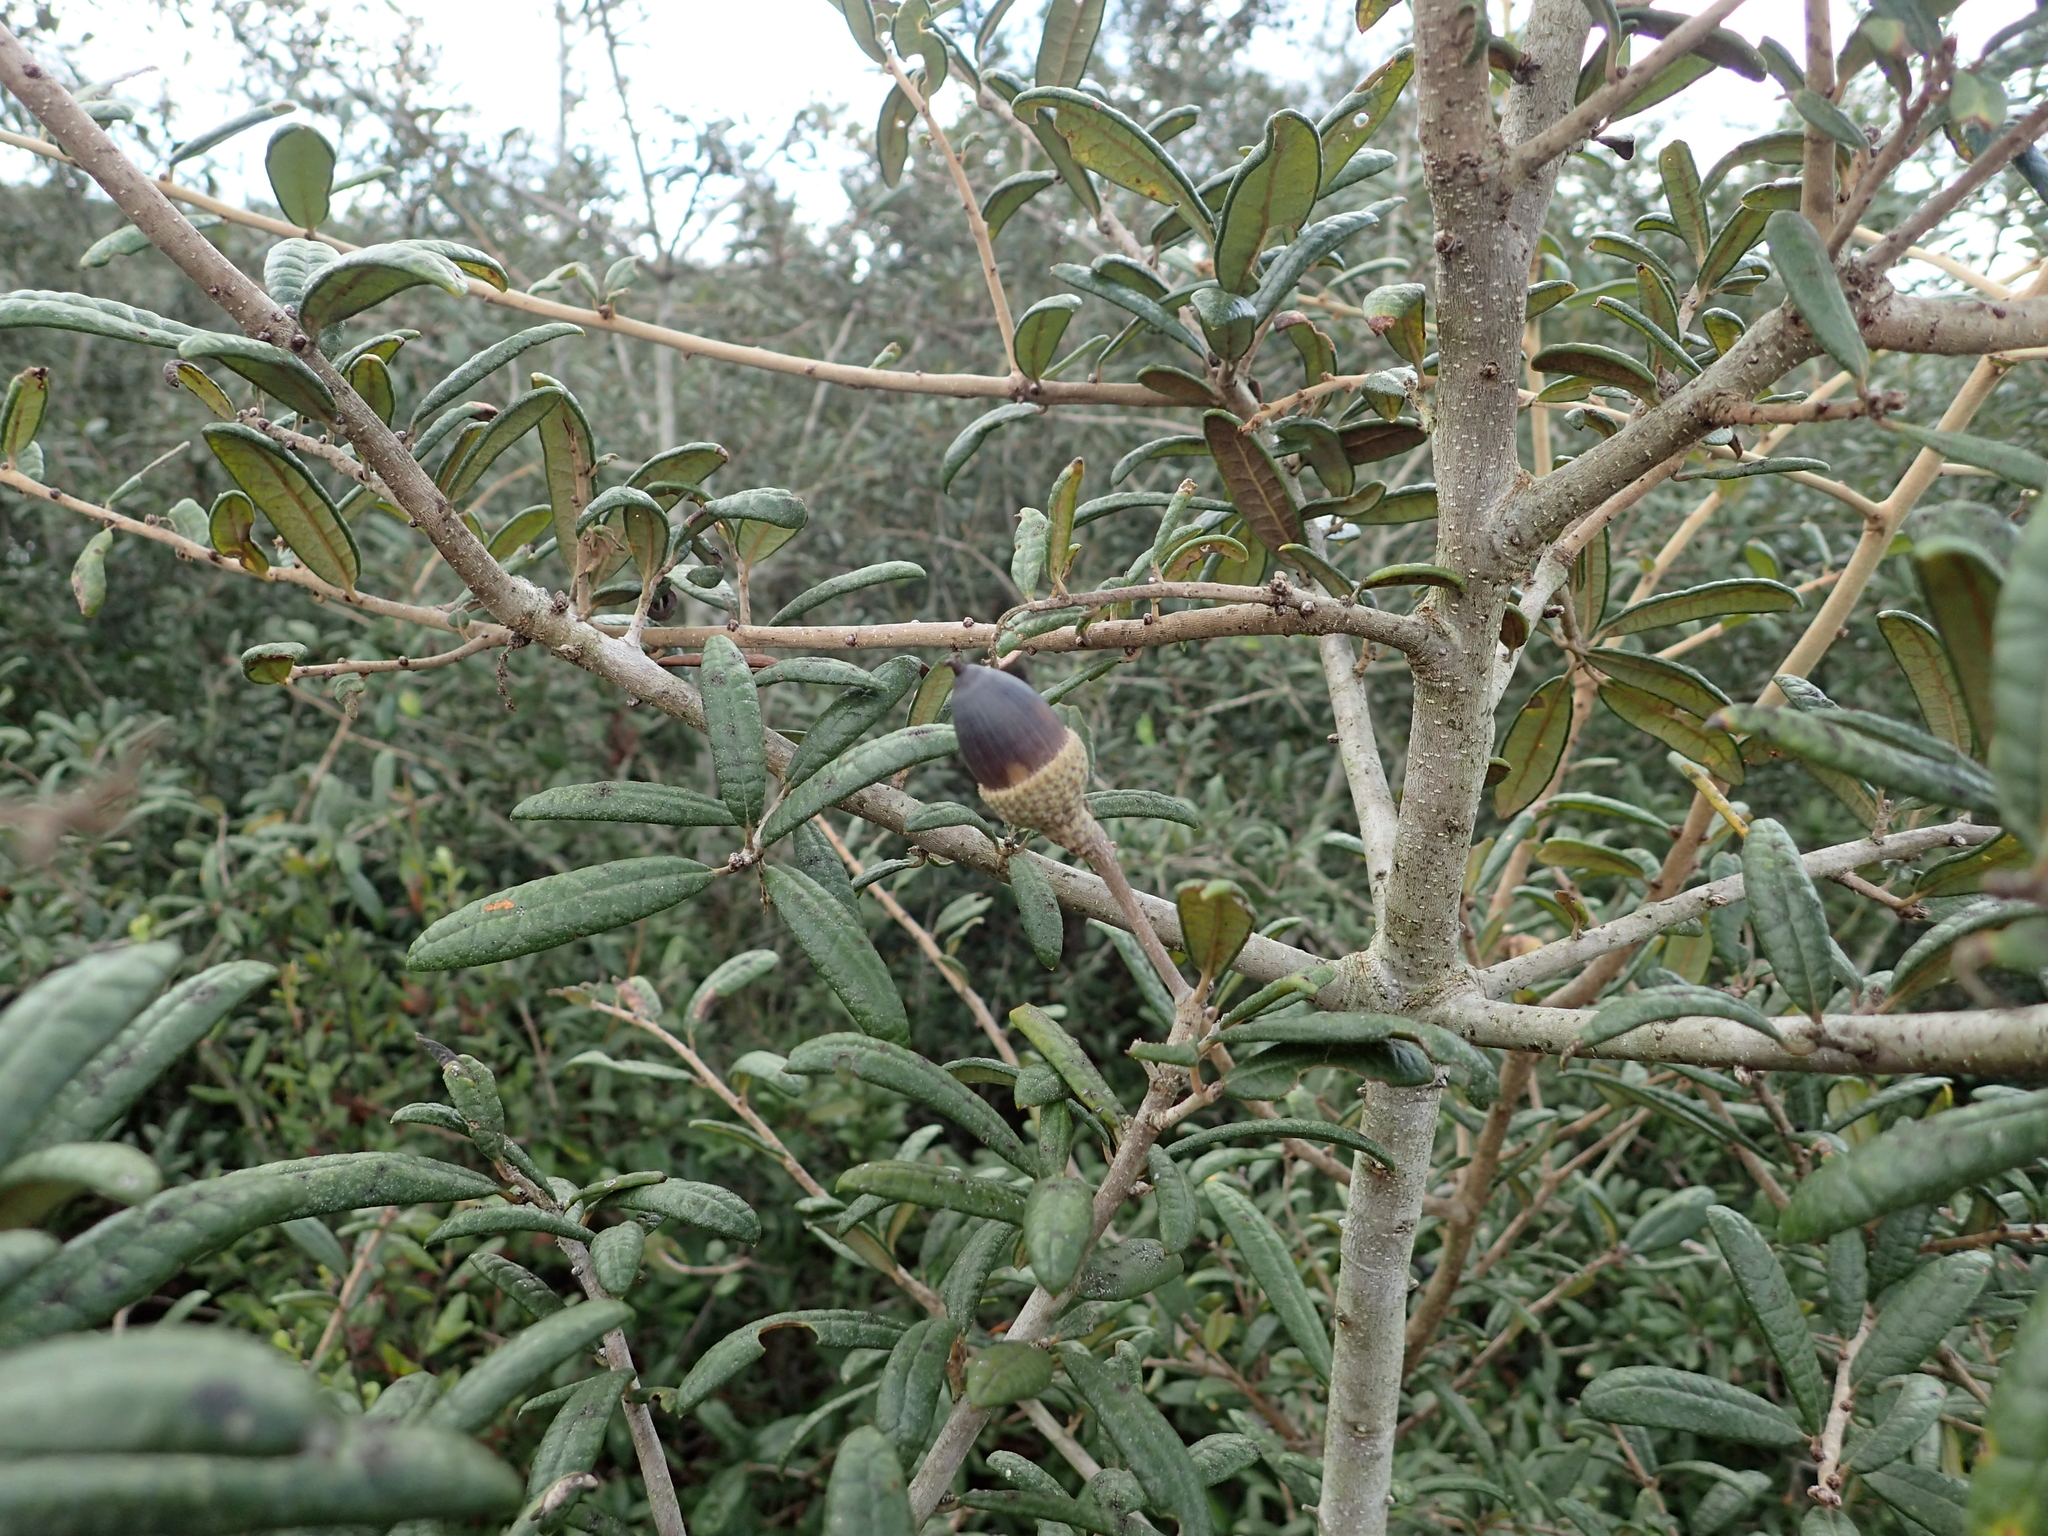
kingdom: Plantae
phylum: Tracheophyta
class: Magnoliopsida
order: Fagales
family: Fagaceae
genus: Quercus
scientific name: Quercus geminata
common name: Sand live oak
